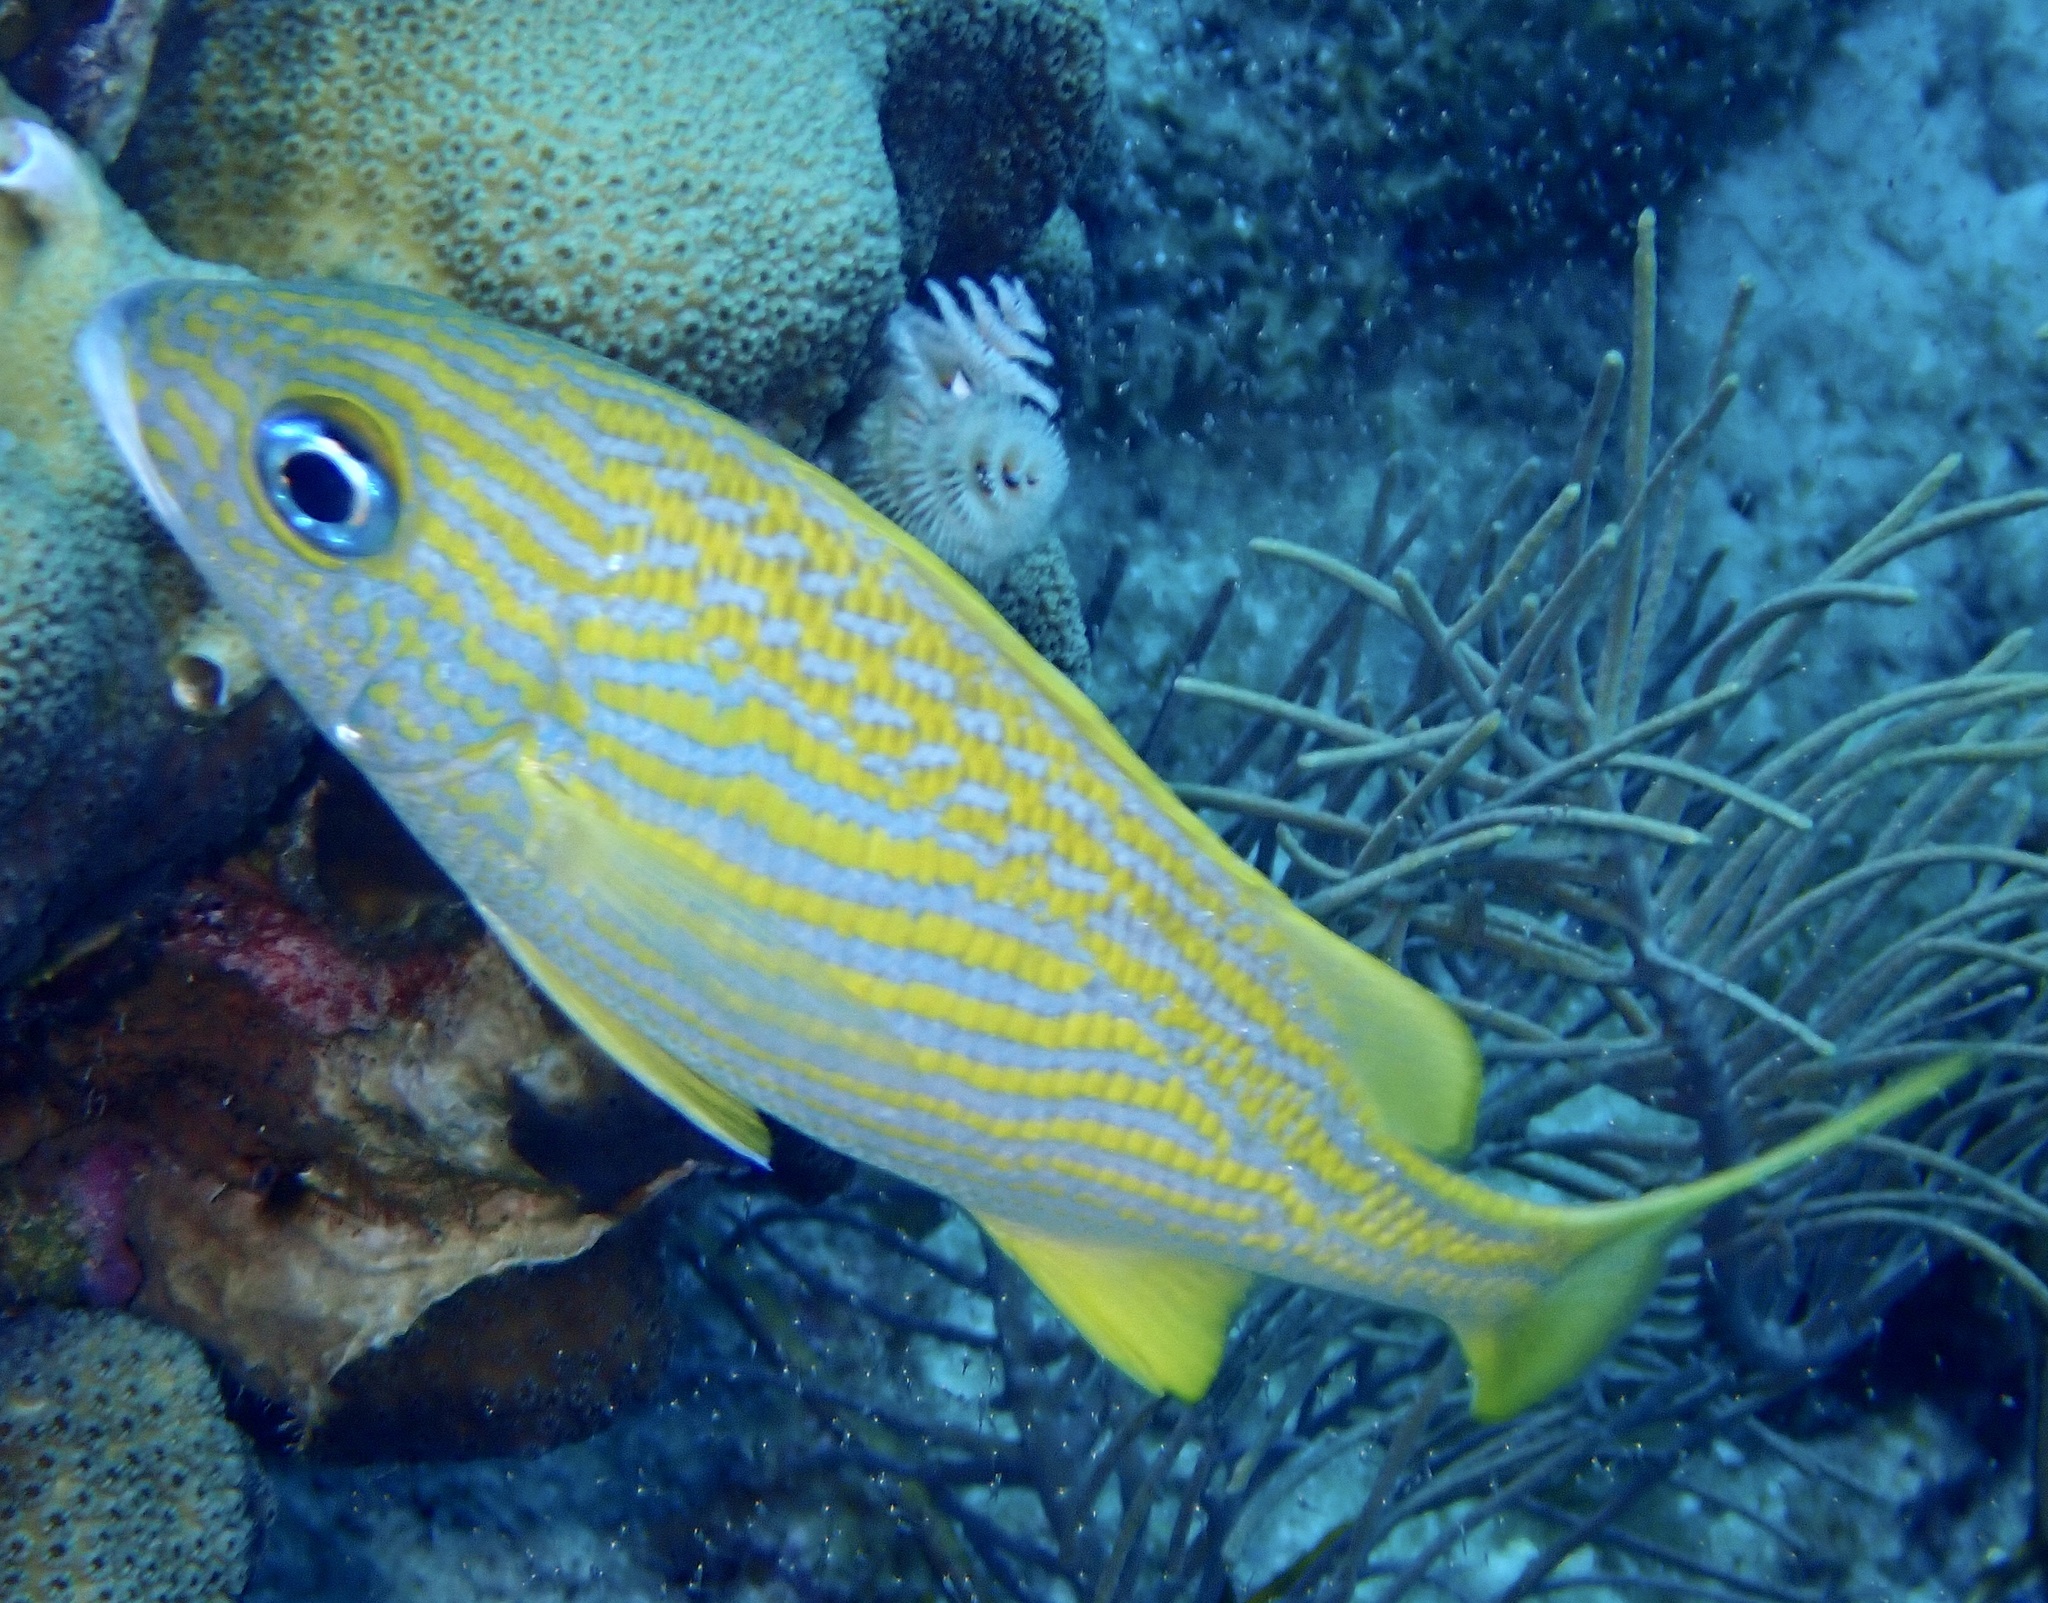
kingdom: Animalia
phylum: Chordata
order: Perciformes
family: Haemulidae
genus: Haemulon
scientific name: Haemulon flavolineatum
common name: French grunt
